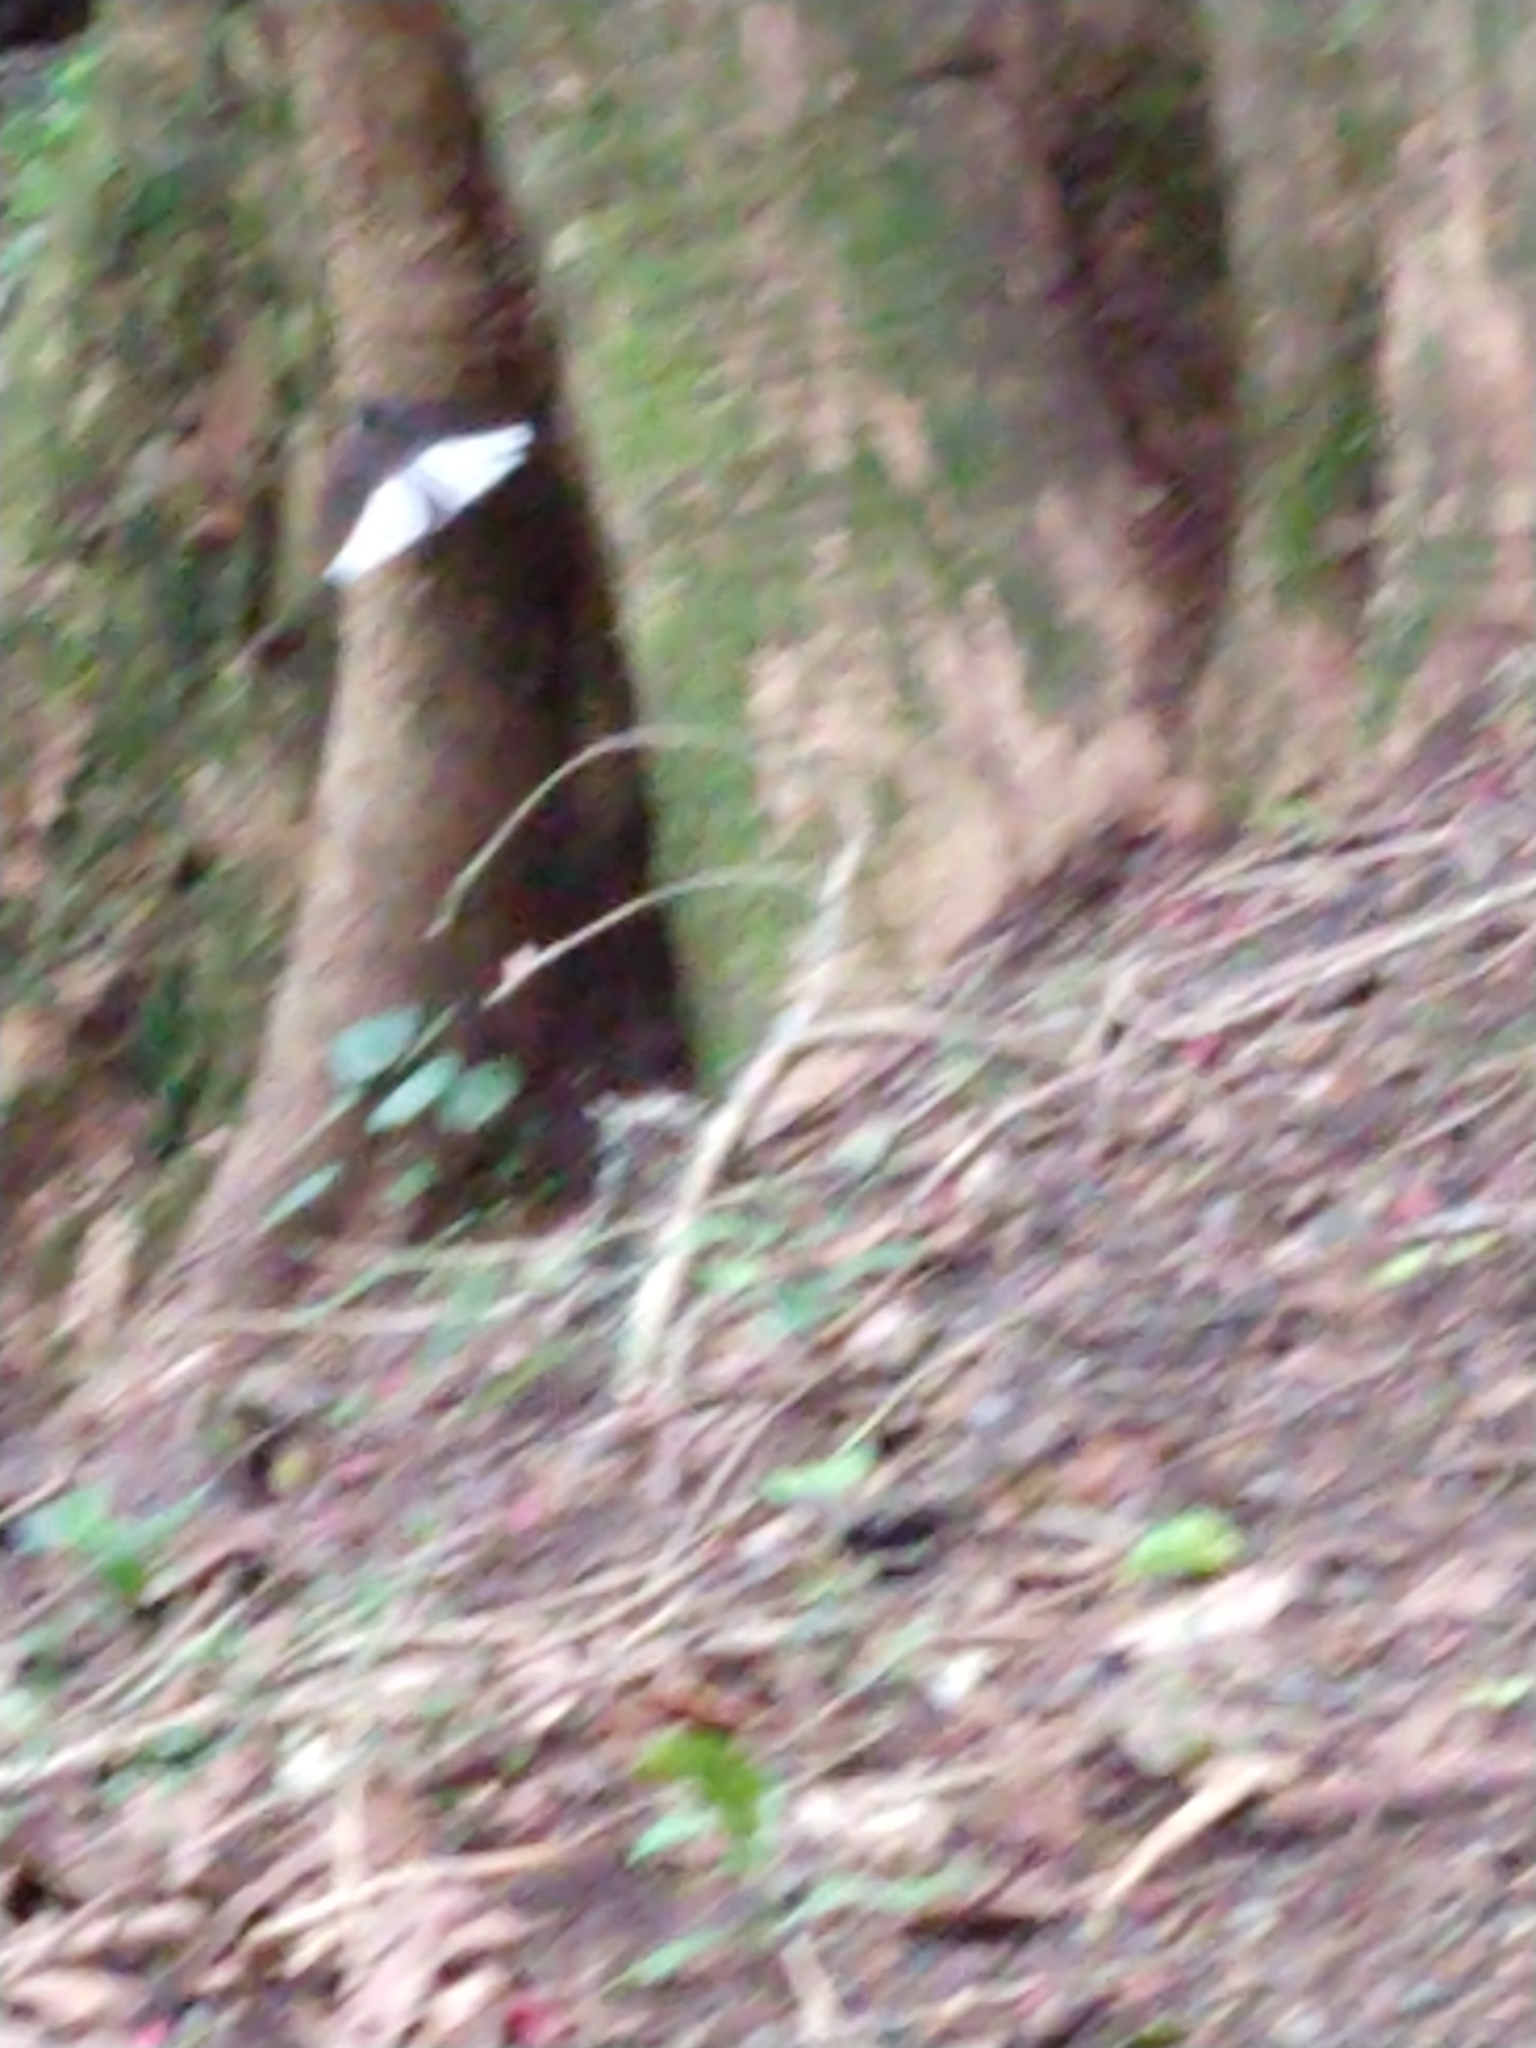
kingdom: Animalia
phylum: Chordata
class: Aves
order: Passeriformes
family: Rhipiduridae
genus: Rhipidura
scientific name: Rhipidura fuliginosa
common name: New zealand fantail
